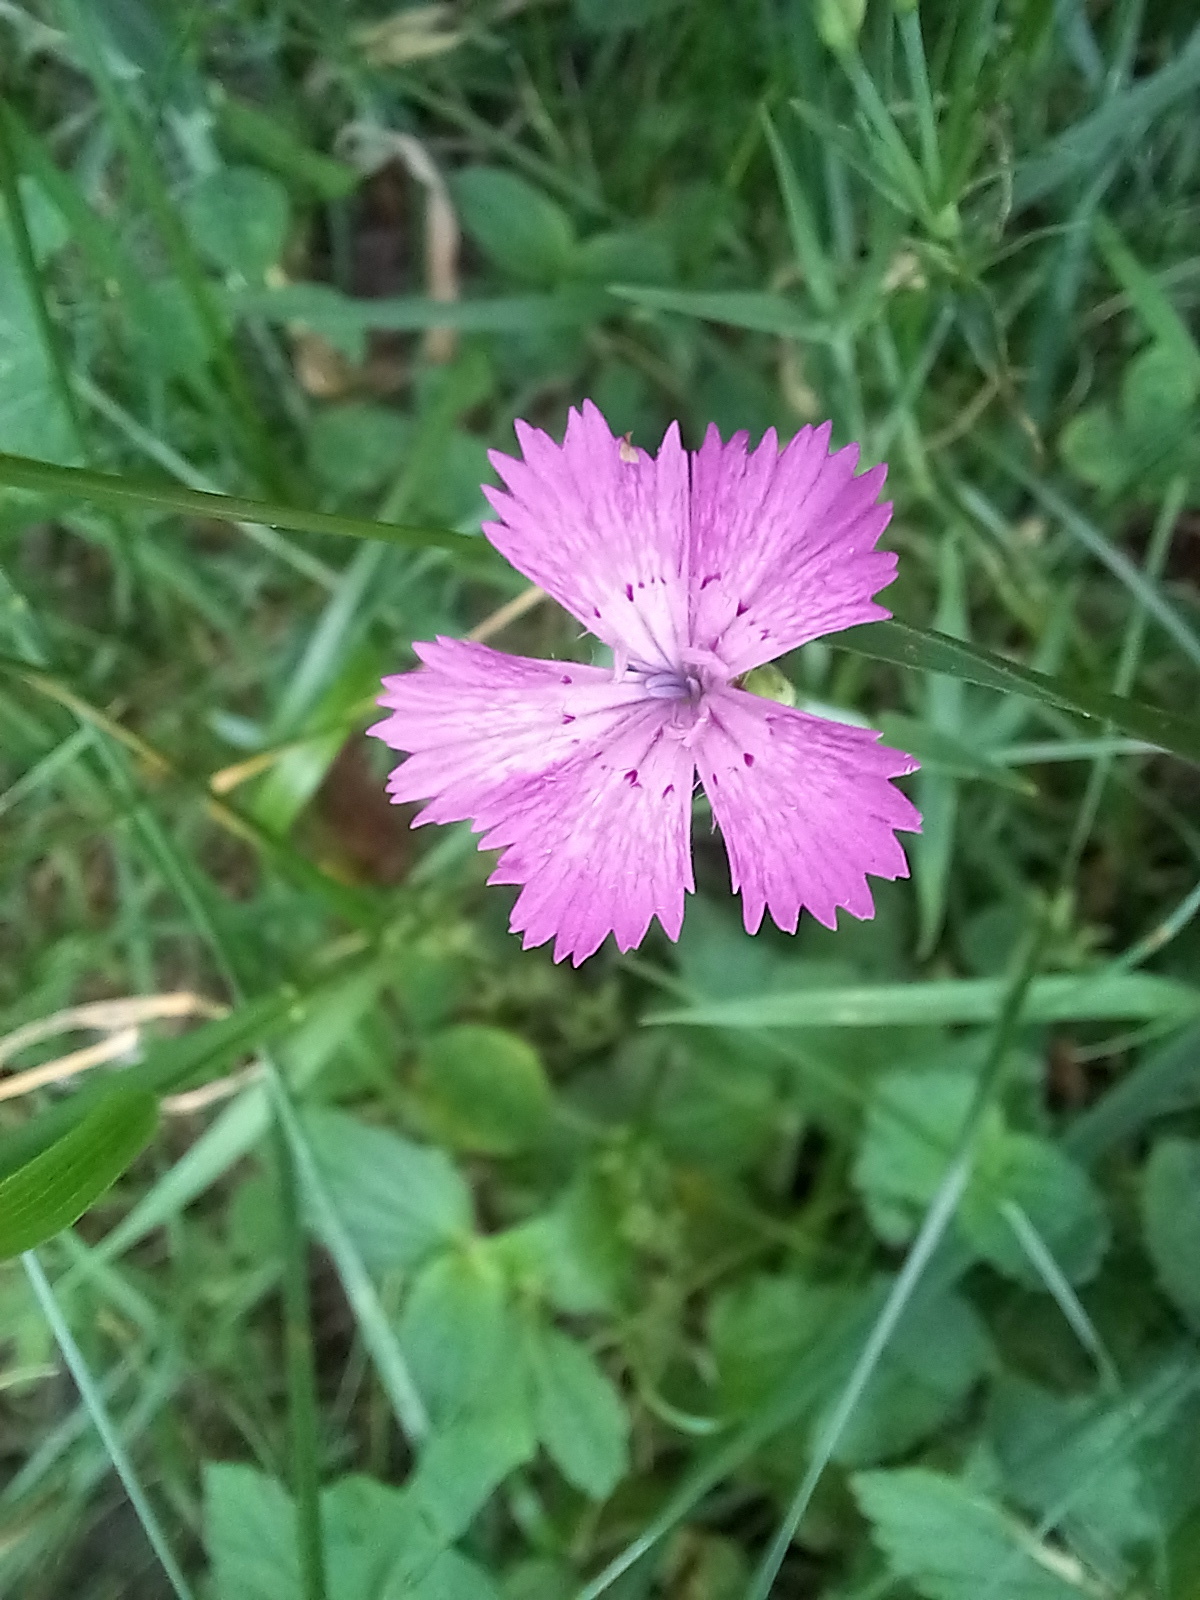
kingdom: Plantae
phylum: Tracheophyta
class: Magnoliopsida
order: Caryophyllales
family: Caryophyllaceae
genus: Dianthus
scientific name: Dianthus chinensis
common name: Rainbow pink
